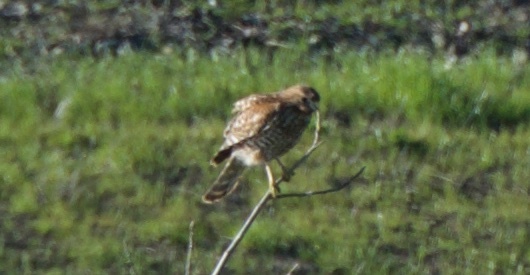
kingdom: Animalia
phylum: Chordata
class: Aves
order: Accipitriformes
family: Accipitridae
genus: Buteo
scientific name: Buteo lineatus
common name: Red-shouldered hawk
